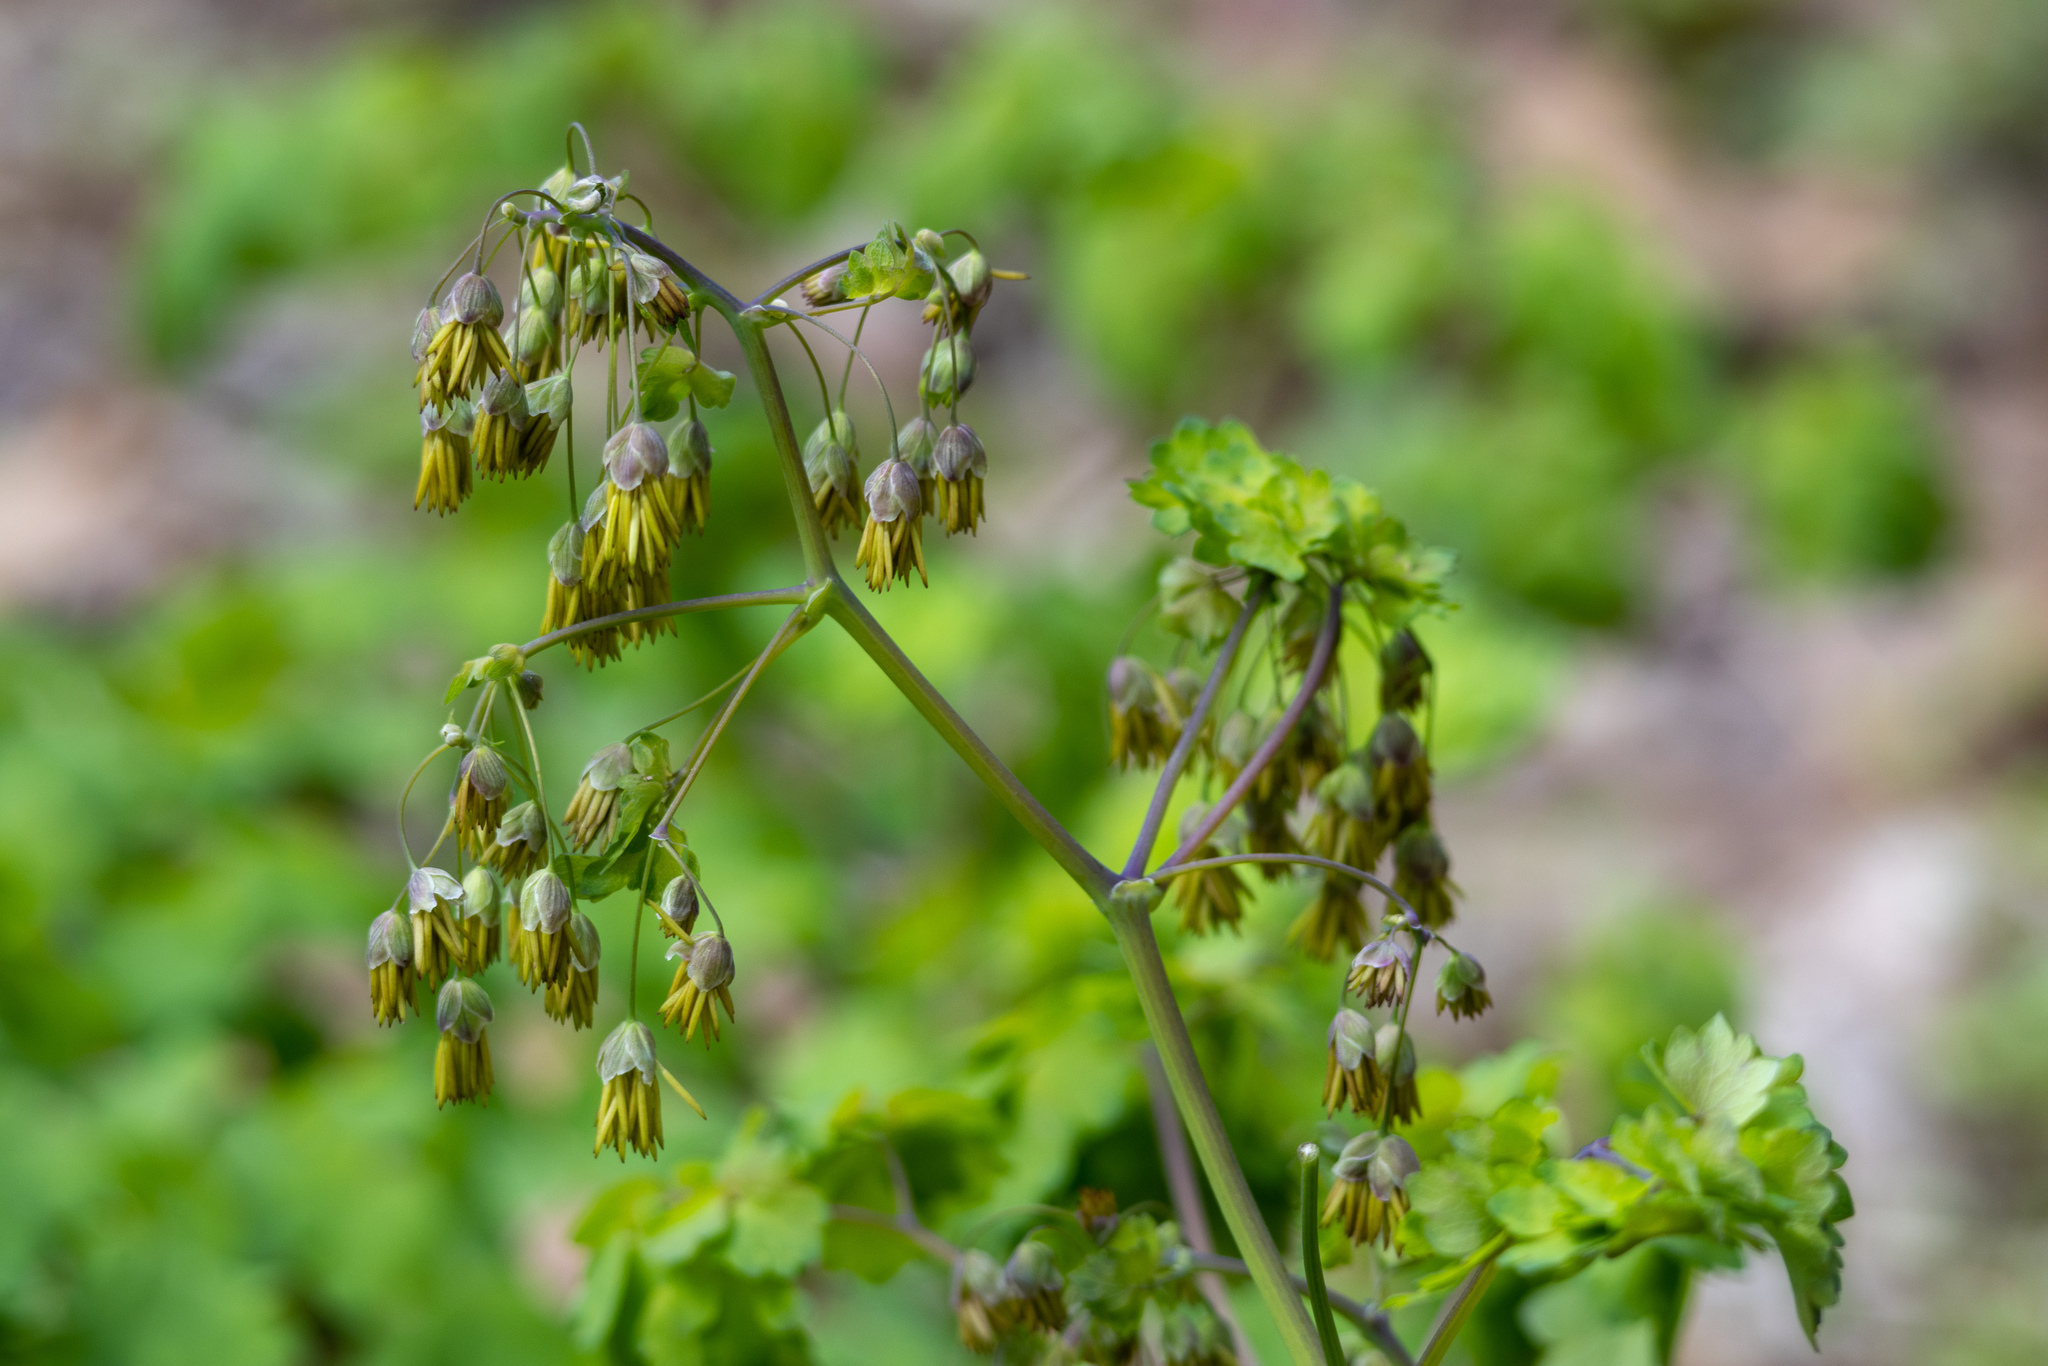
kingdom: Plantae
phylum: Tracheophyta
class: Magnoliopsida
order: Ranunculales
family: Ranunculaceae
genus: Thalictrum
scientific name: Thalictrum dioicum
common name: Early meadow-rue
